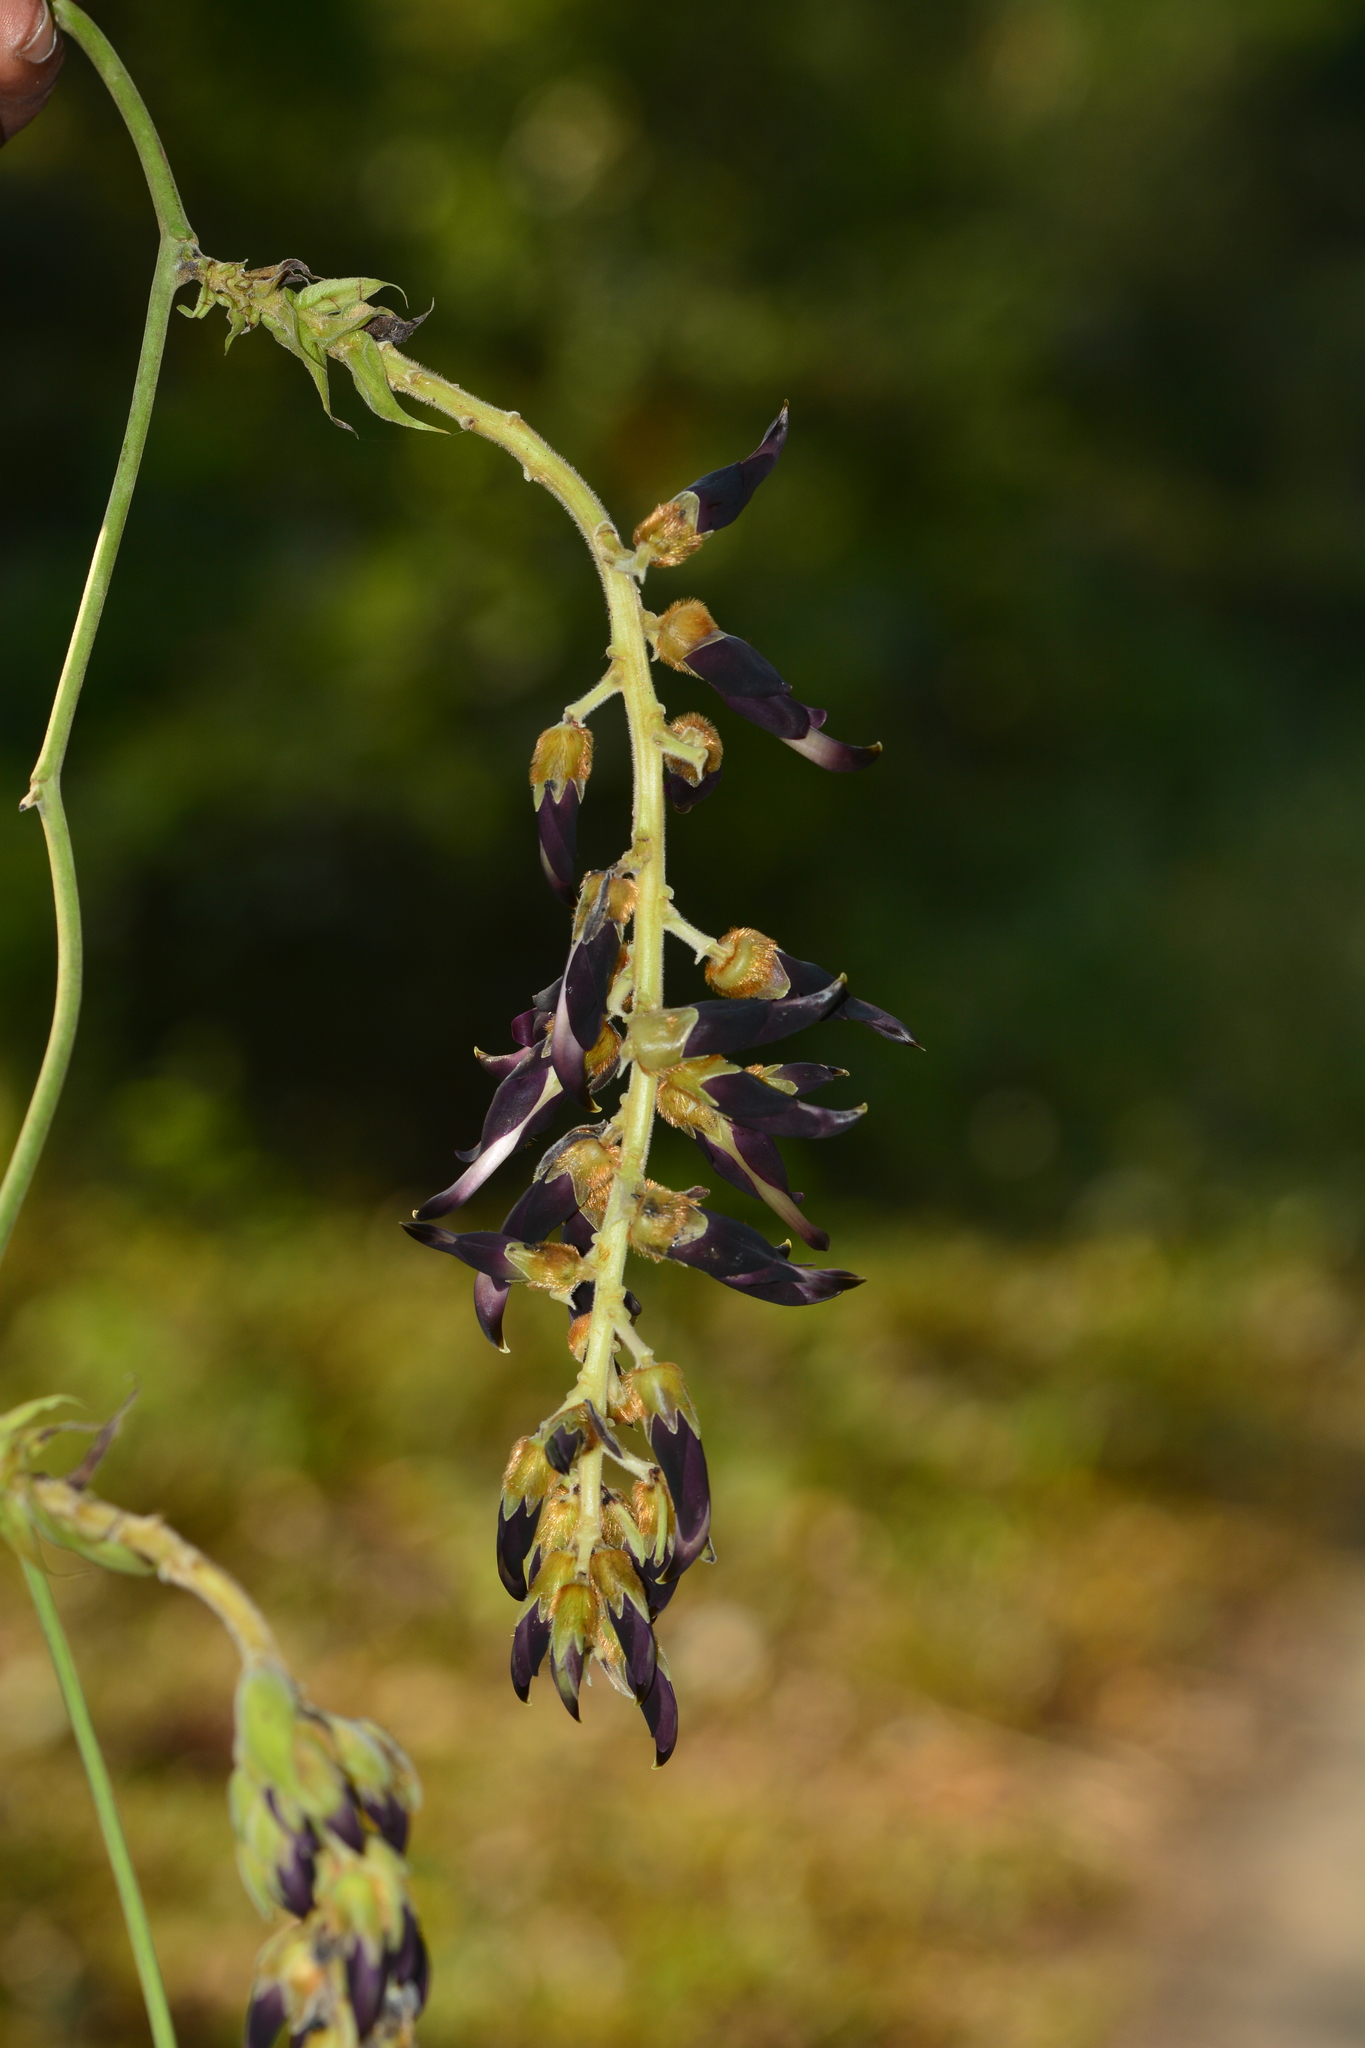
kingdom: Plantae
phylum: Tracheophyta
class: Magnoliopsida
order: Fabales
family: Fabaceae
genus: Mucuna
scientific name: Mucuna bracteata
